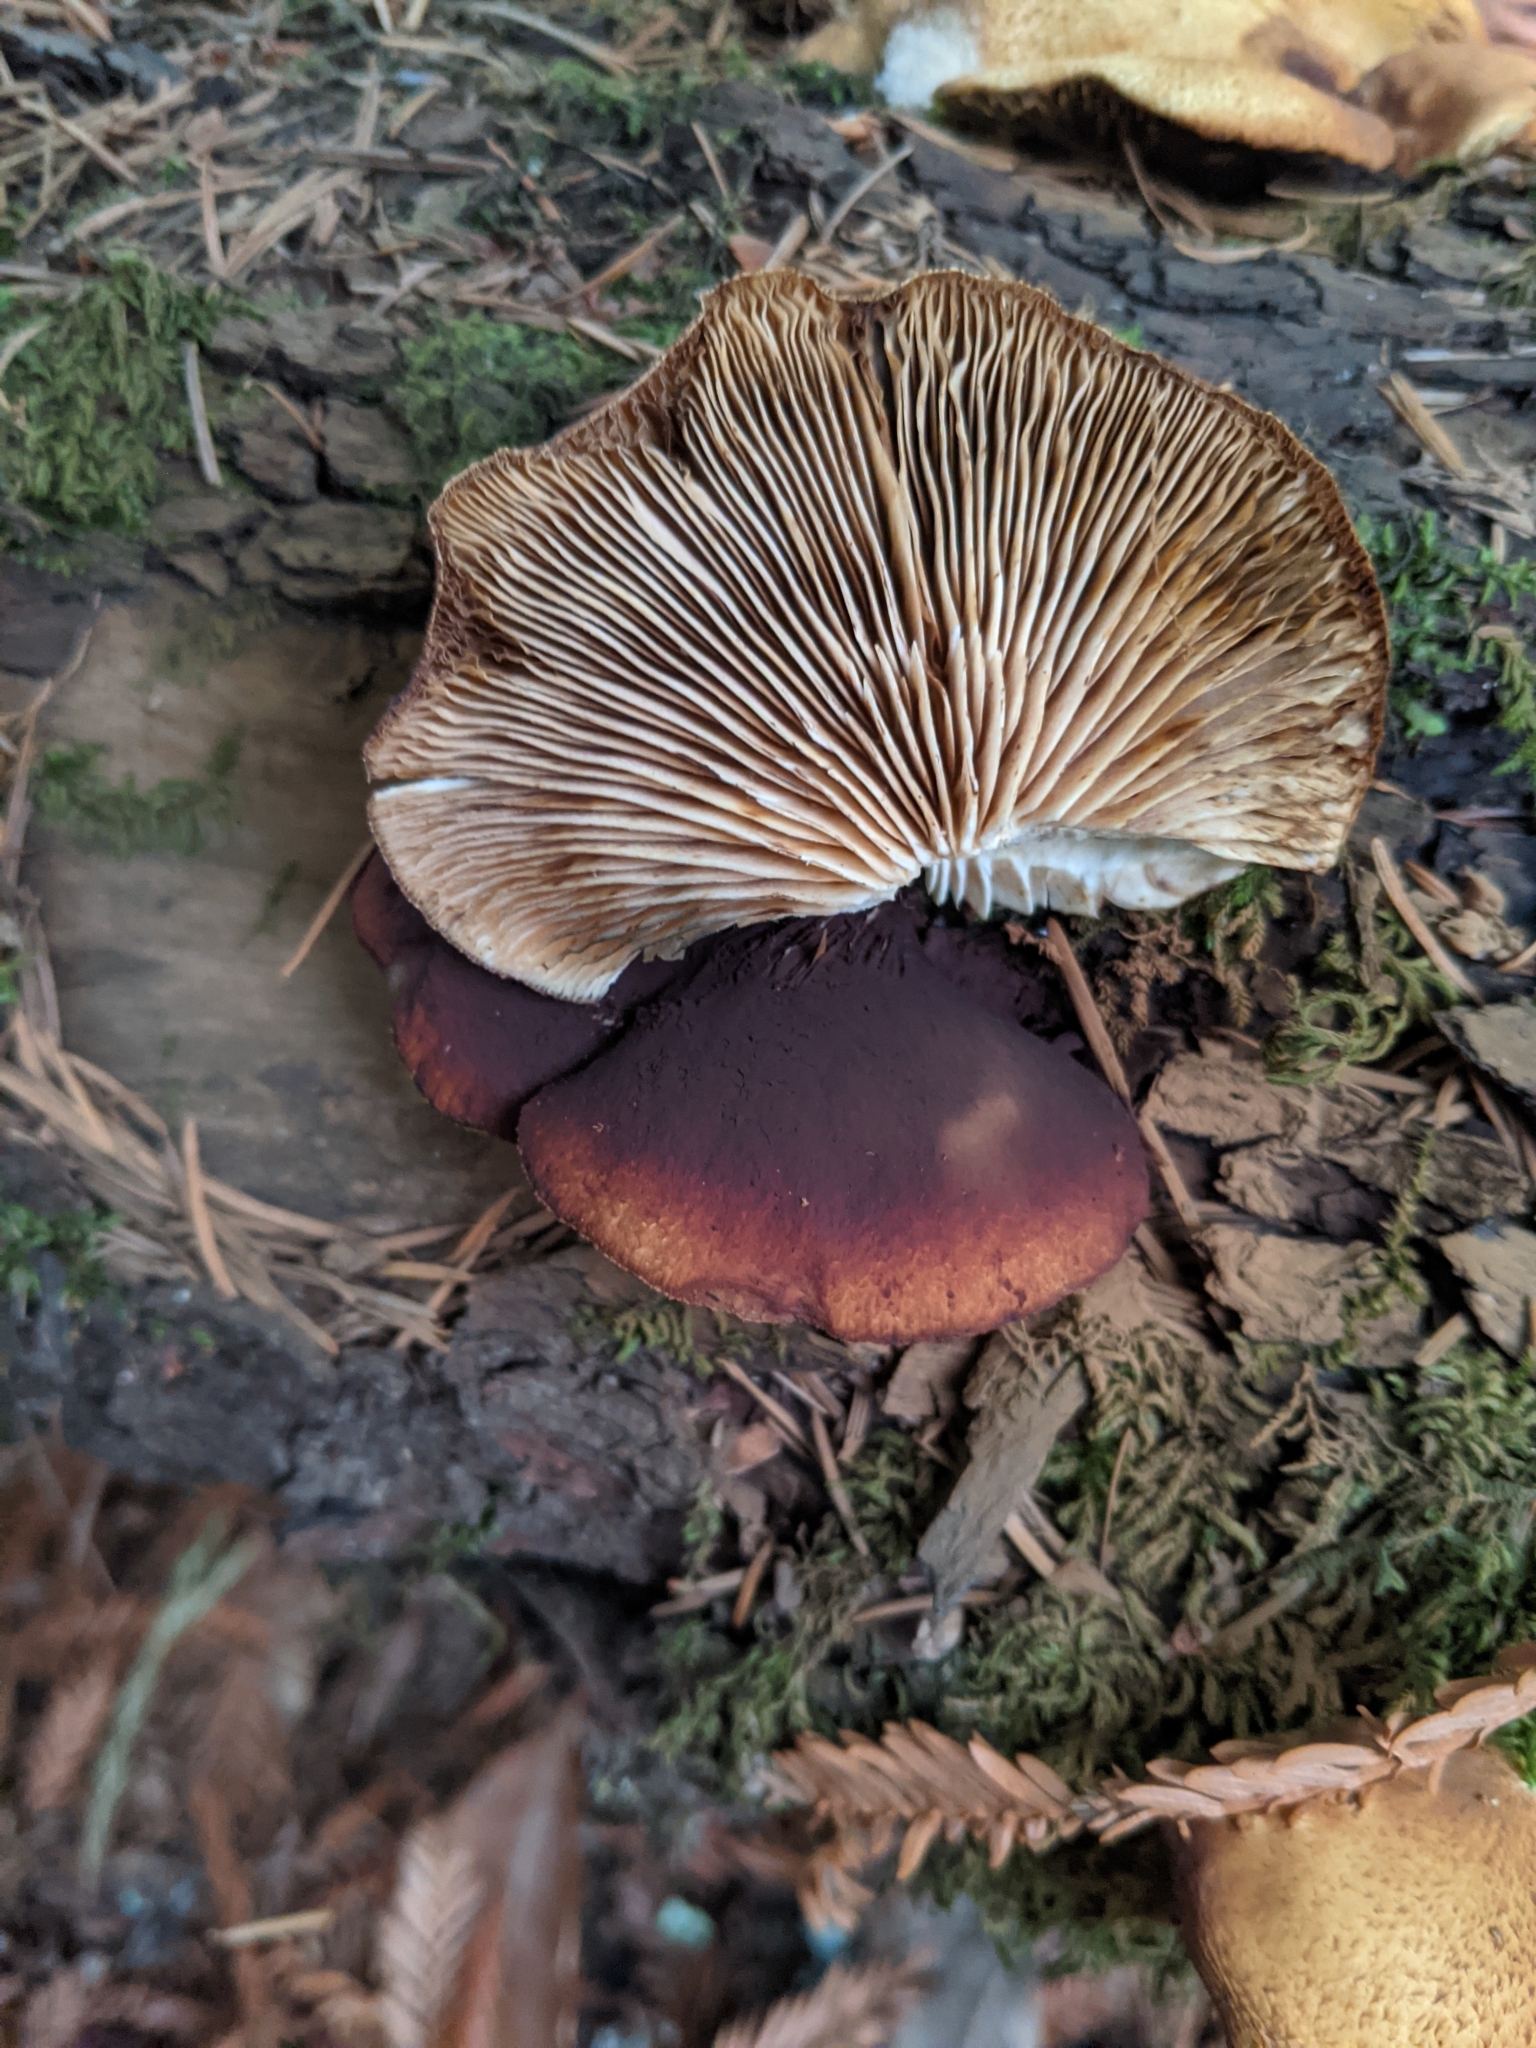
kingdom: Fungi
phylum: Basidiomycota
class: Agaricomycetes
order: Agaricales
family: Crepidotaceae
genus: Crepidotus
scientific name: Crepidotus mollis
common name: Peeling oysterling
